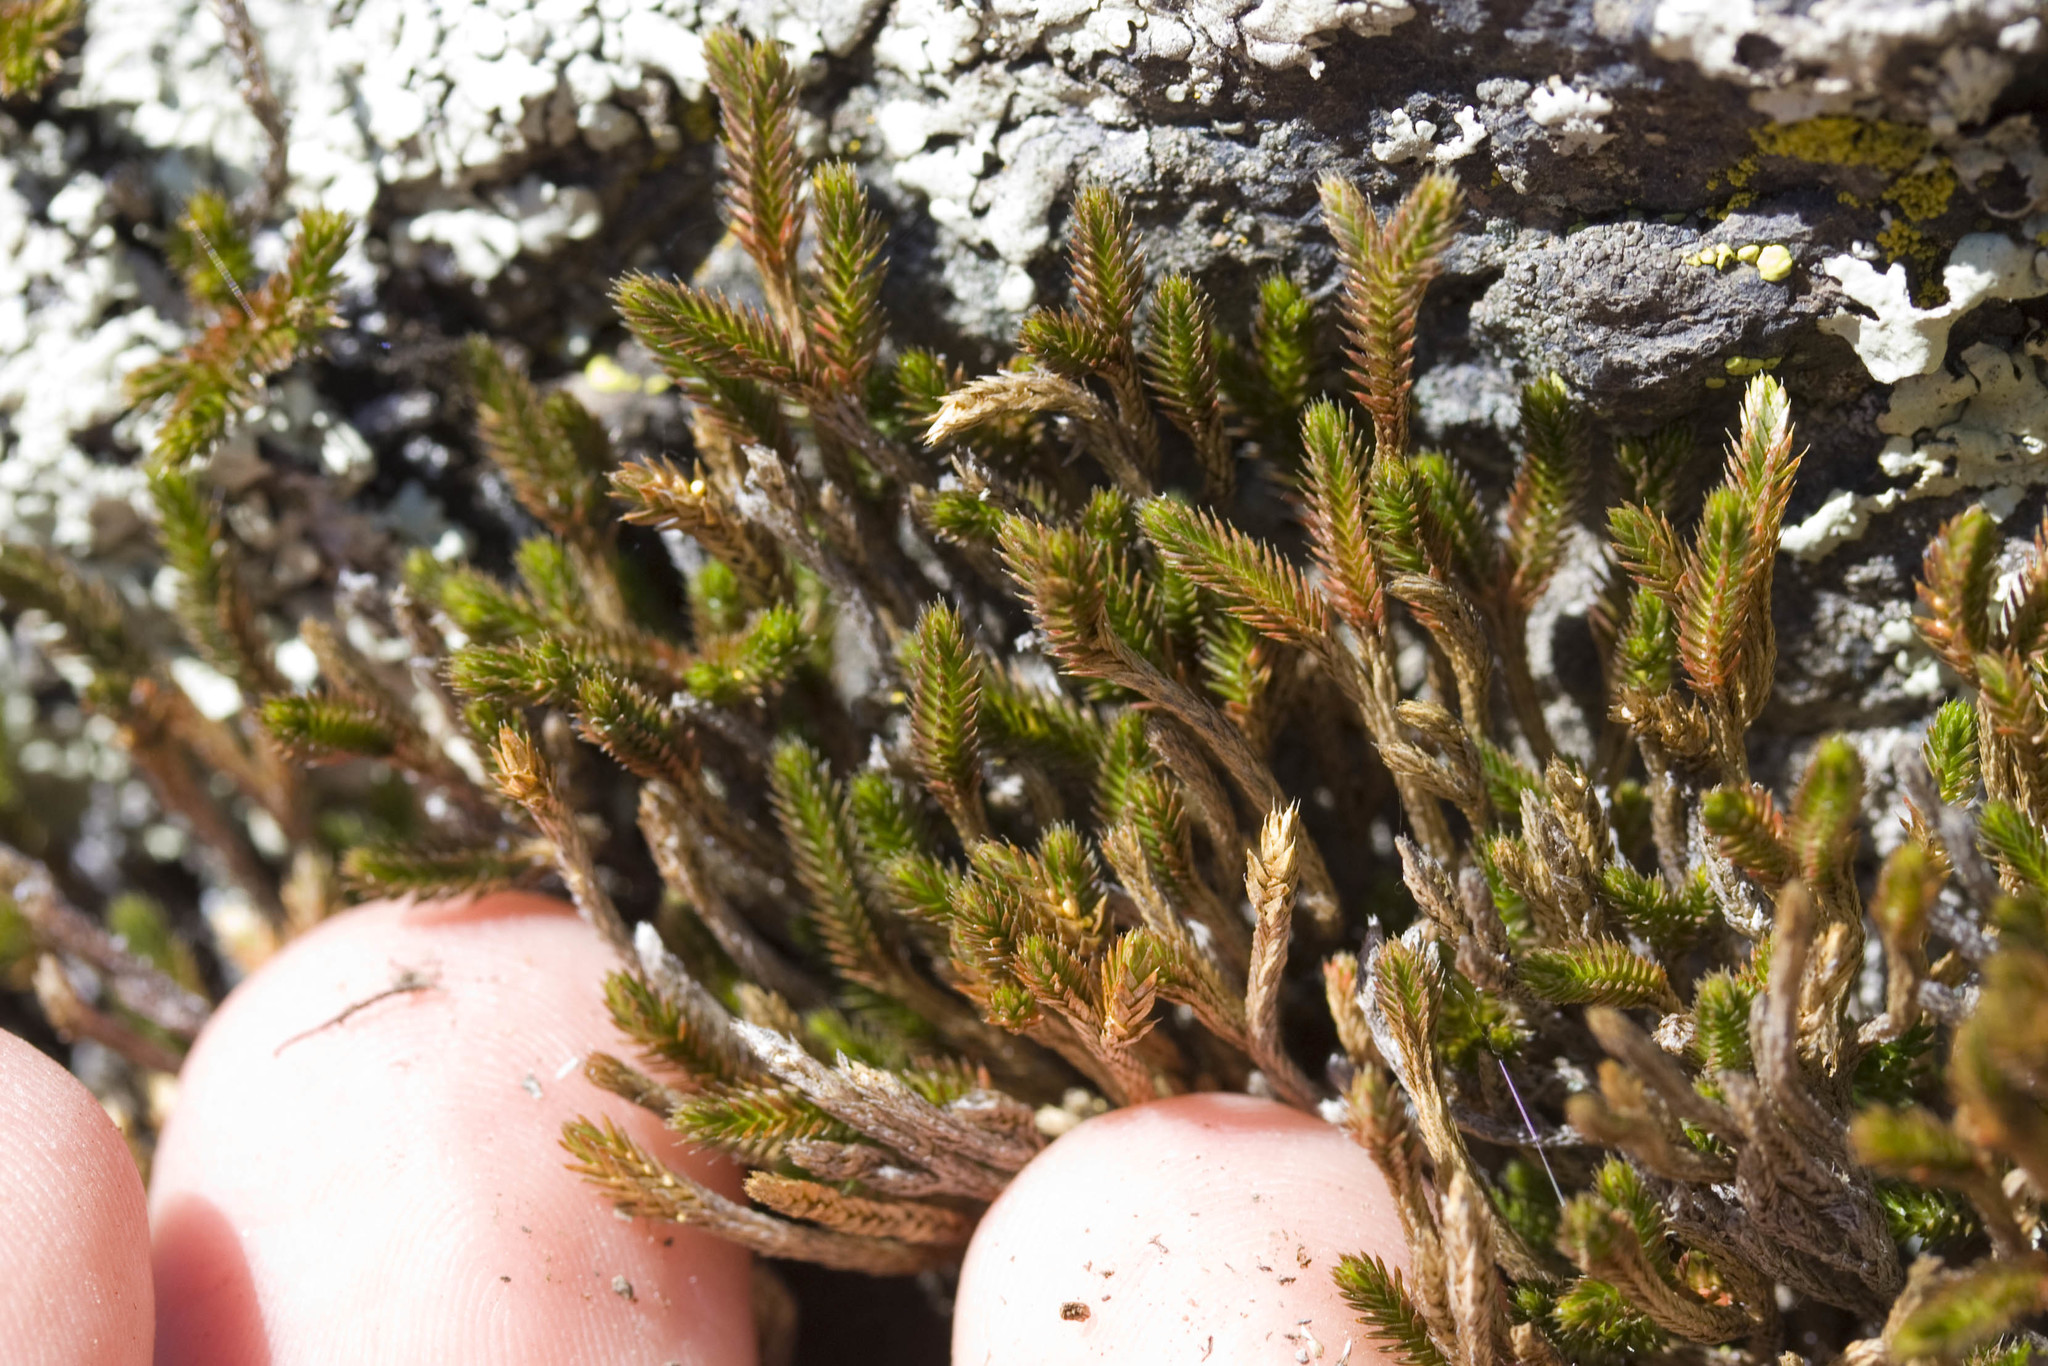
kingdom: Plantae
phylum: Tracheophyta
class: Lycopodiopsida
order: Selaginellales
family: Selaginellaceae
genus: Selaginella
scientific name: Selaginella bigelovii
